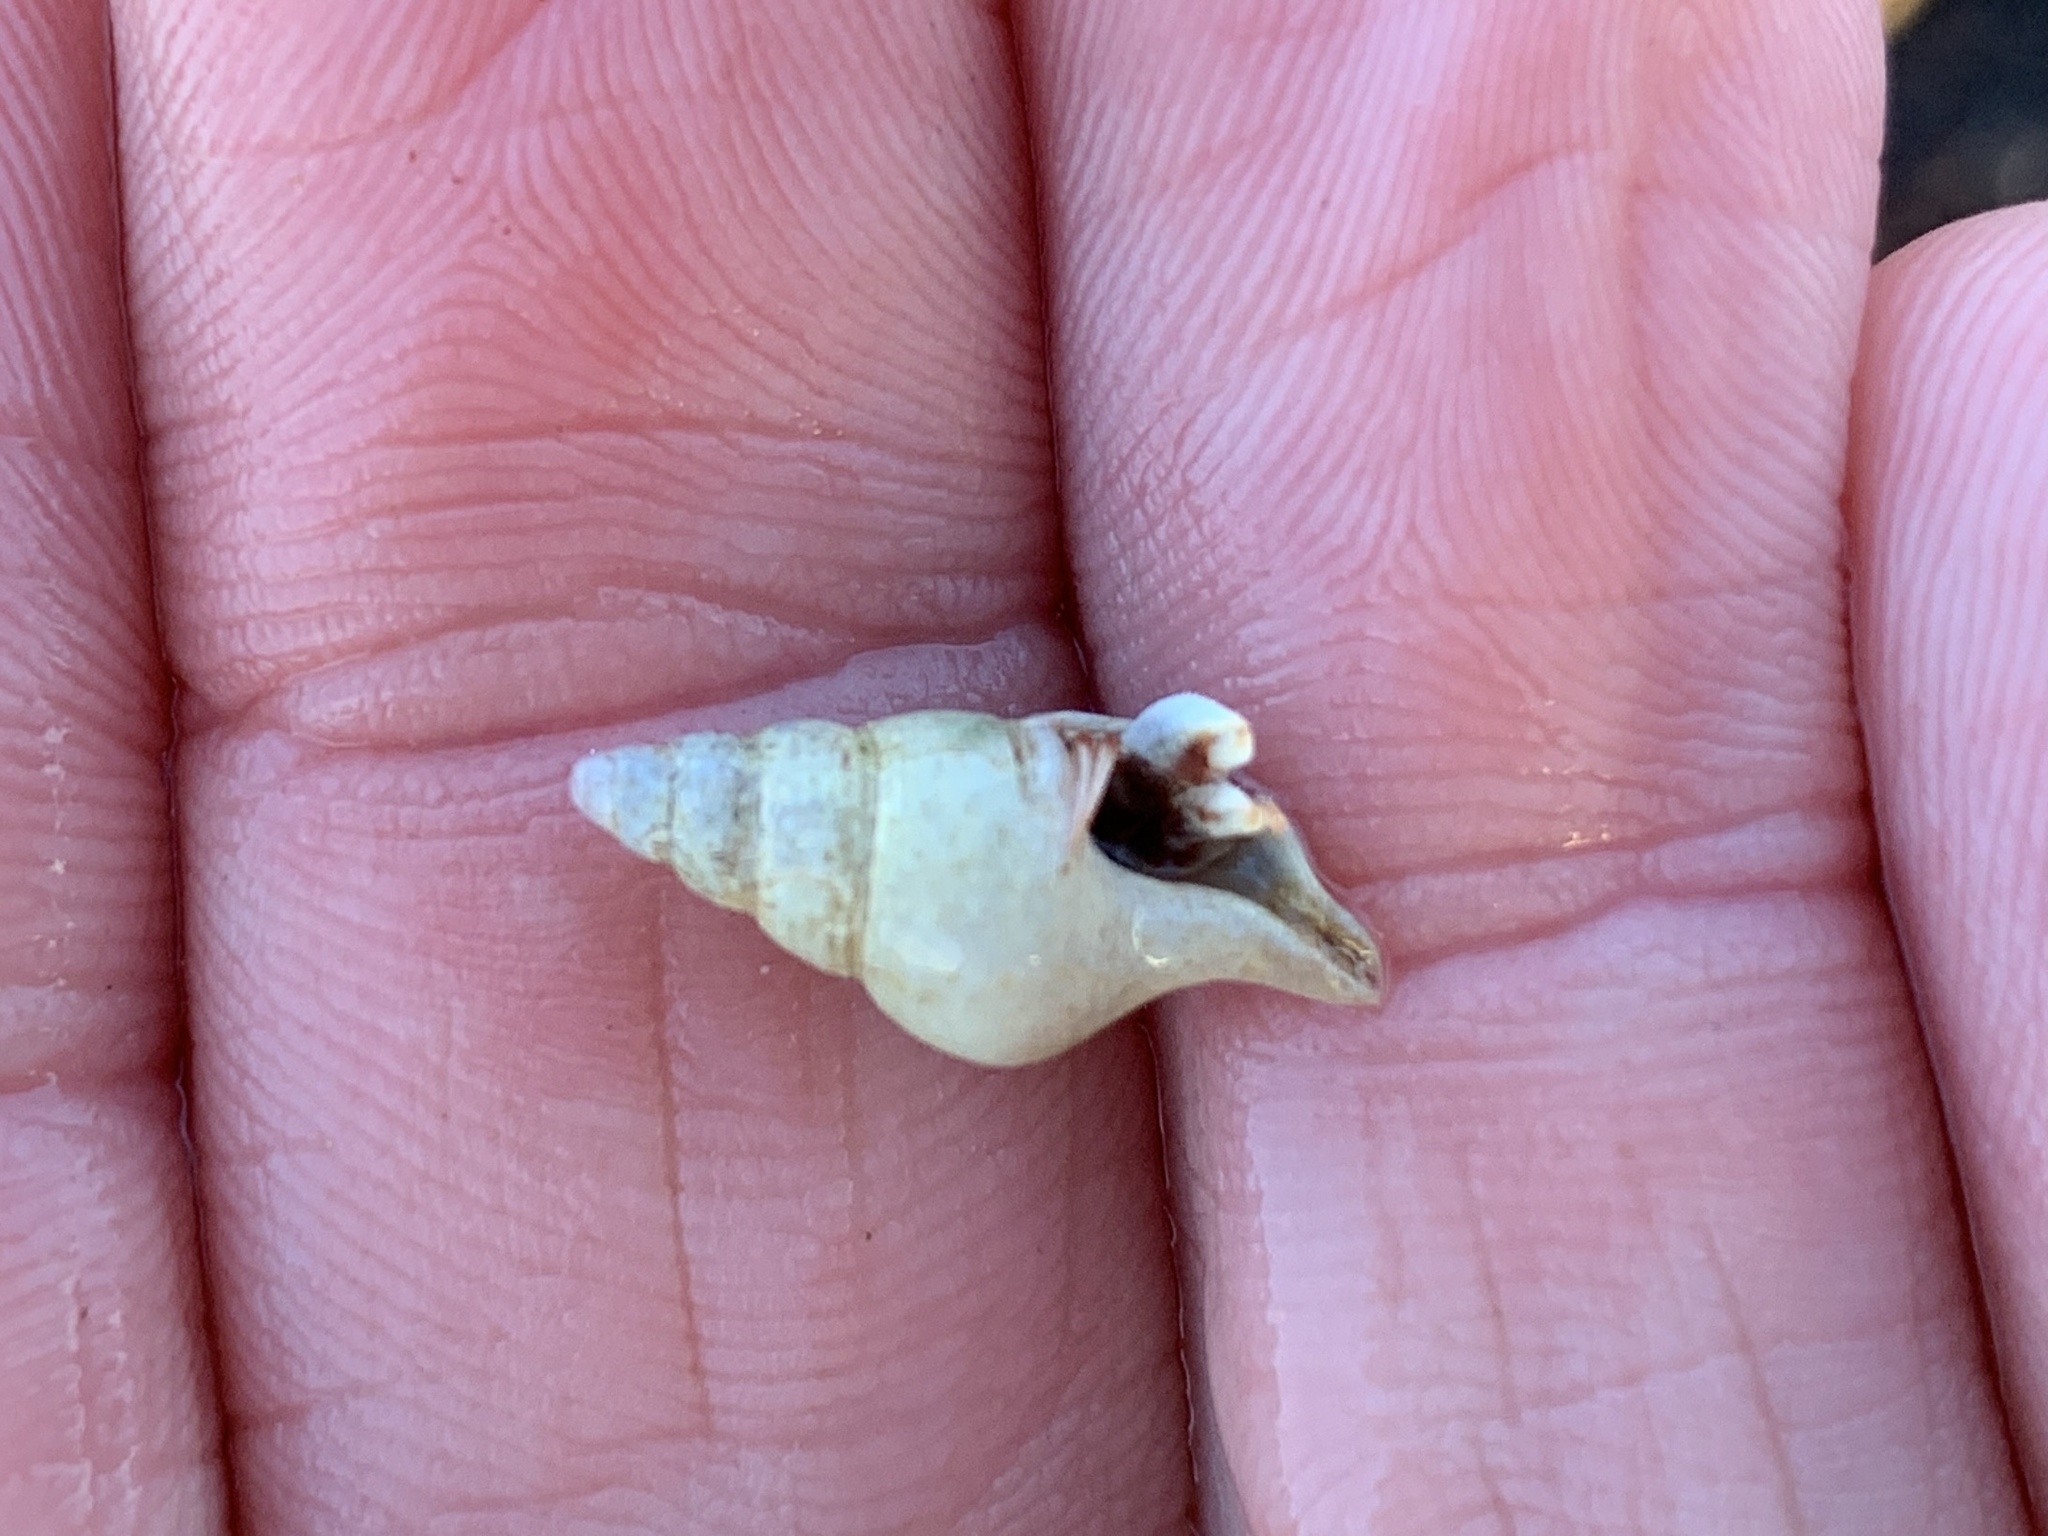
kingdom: Animalia
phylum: Mollusca
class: Gastropoda
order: Neogastropoda
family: Colidae
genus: Colus
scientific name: Colus stimpsoni
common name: Stimpson's colus
